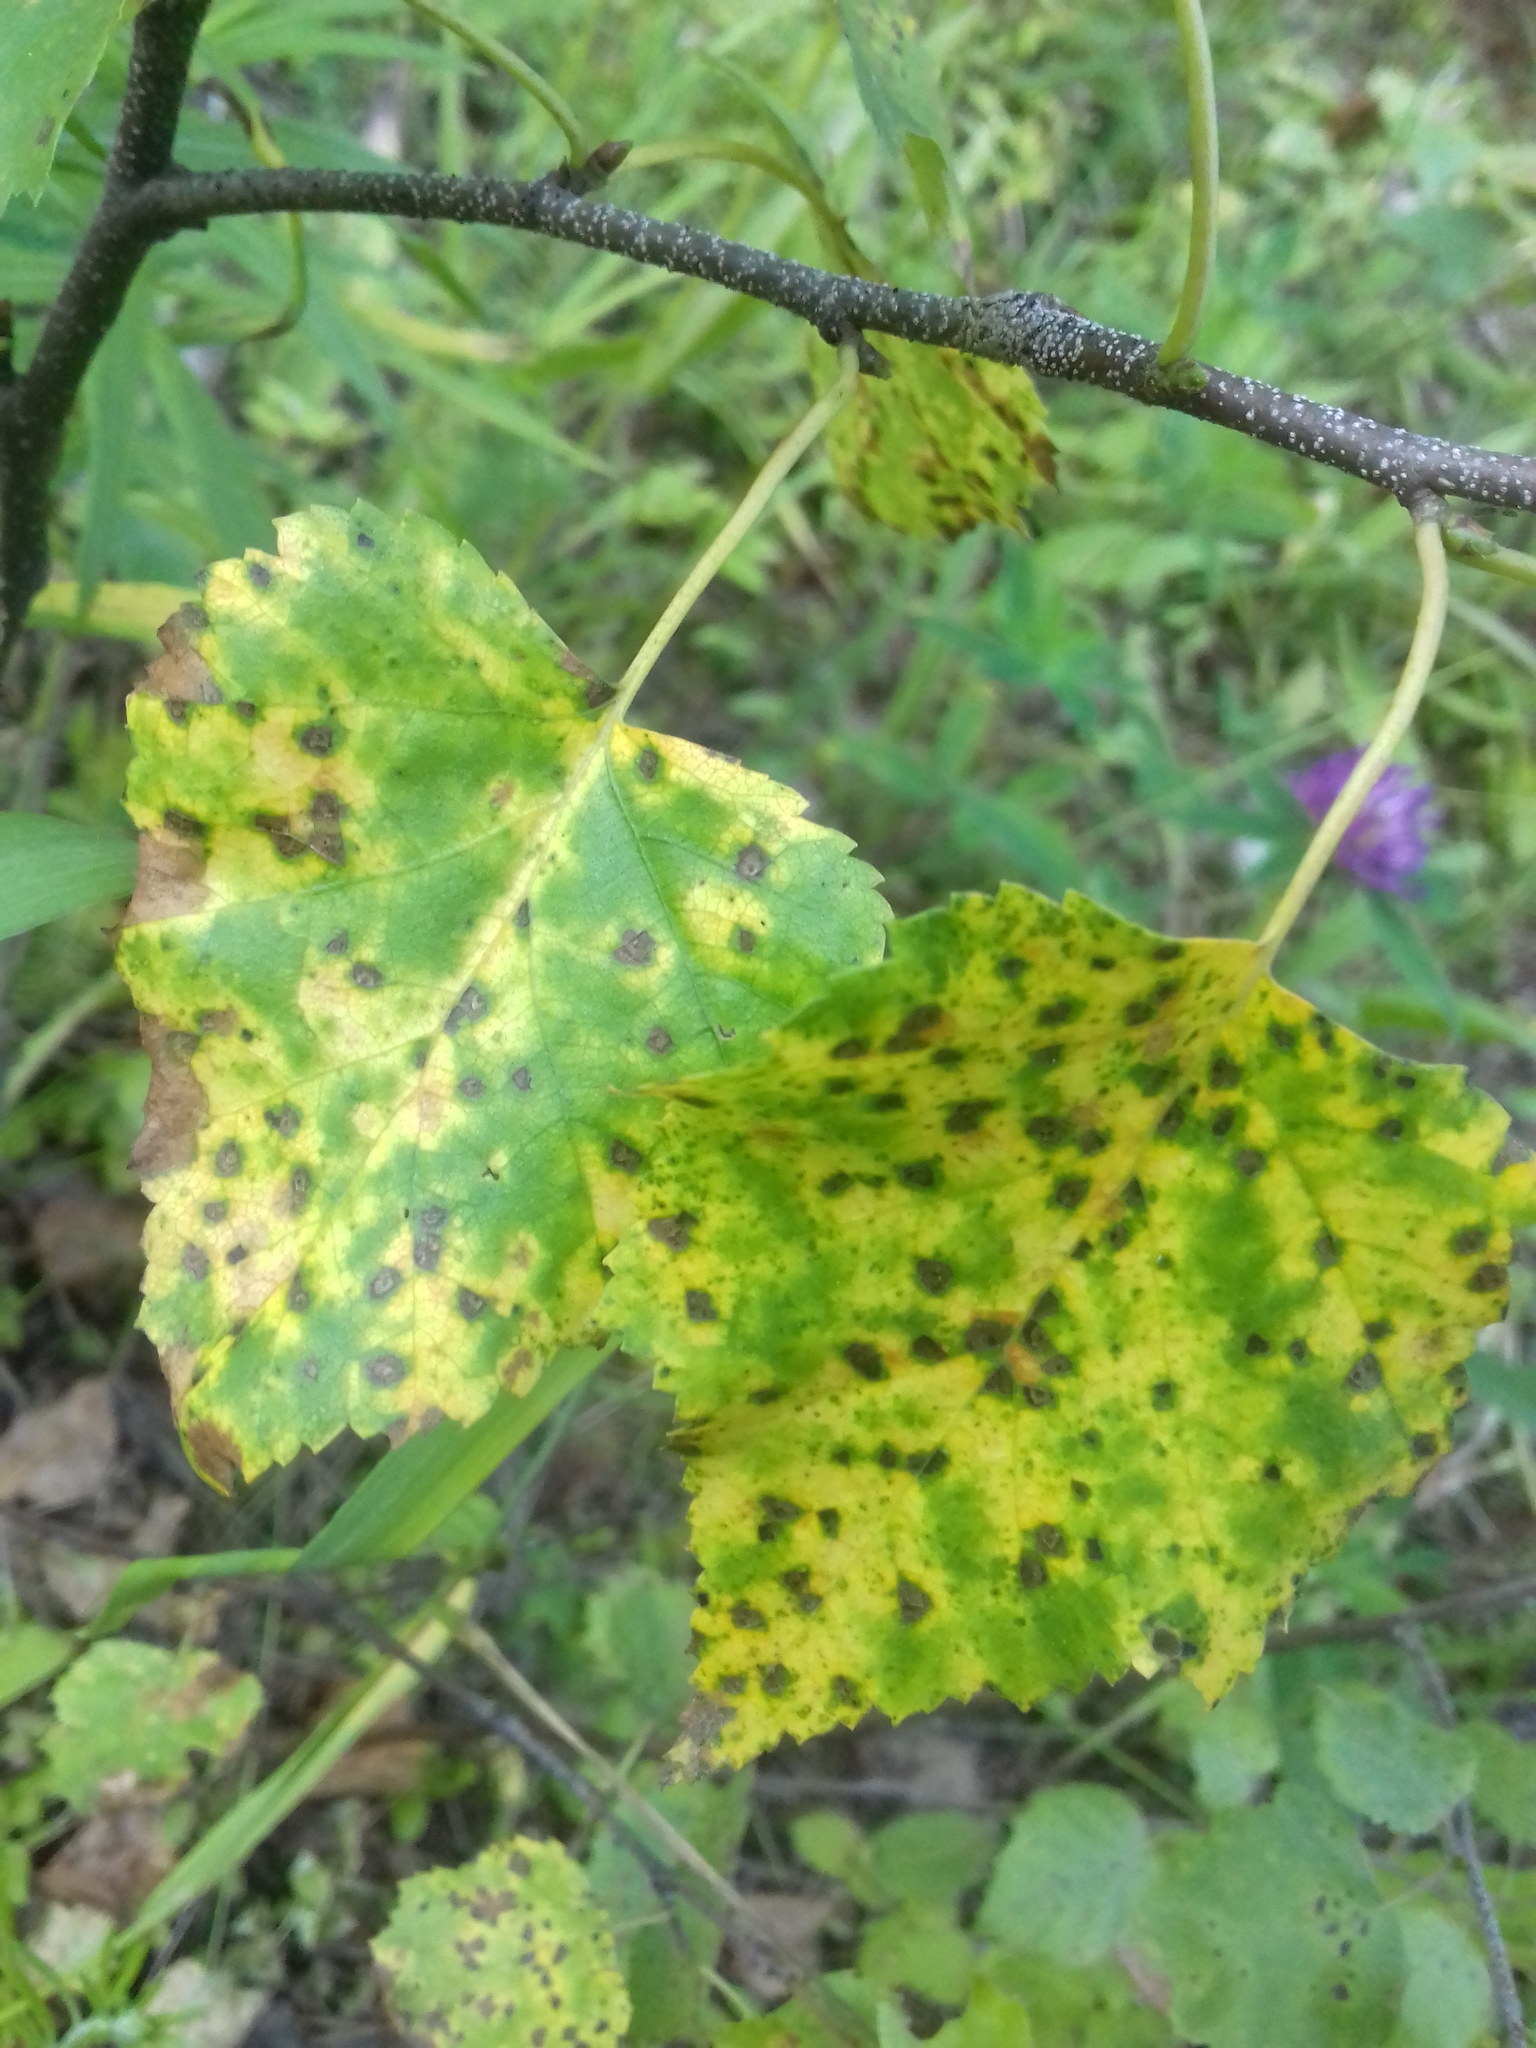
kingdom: Plantae
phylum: Tracheophyta
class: Magnoliopsida
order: Fagales
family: Betulaceae
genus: Betula
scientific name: Betula pendula
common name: Silver birch
